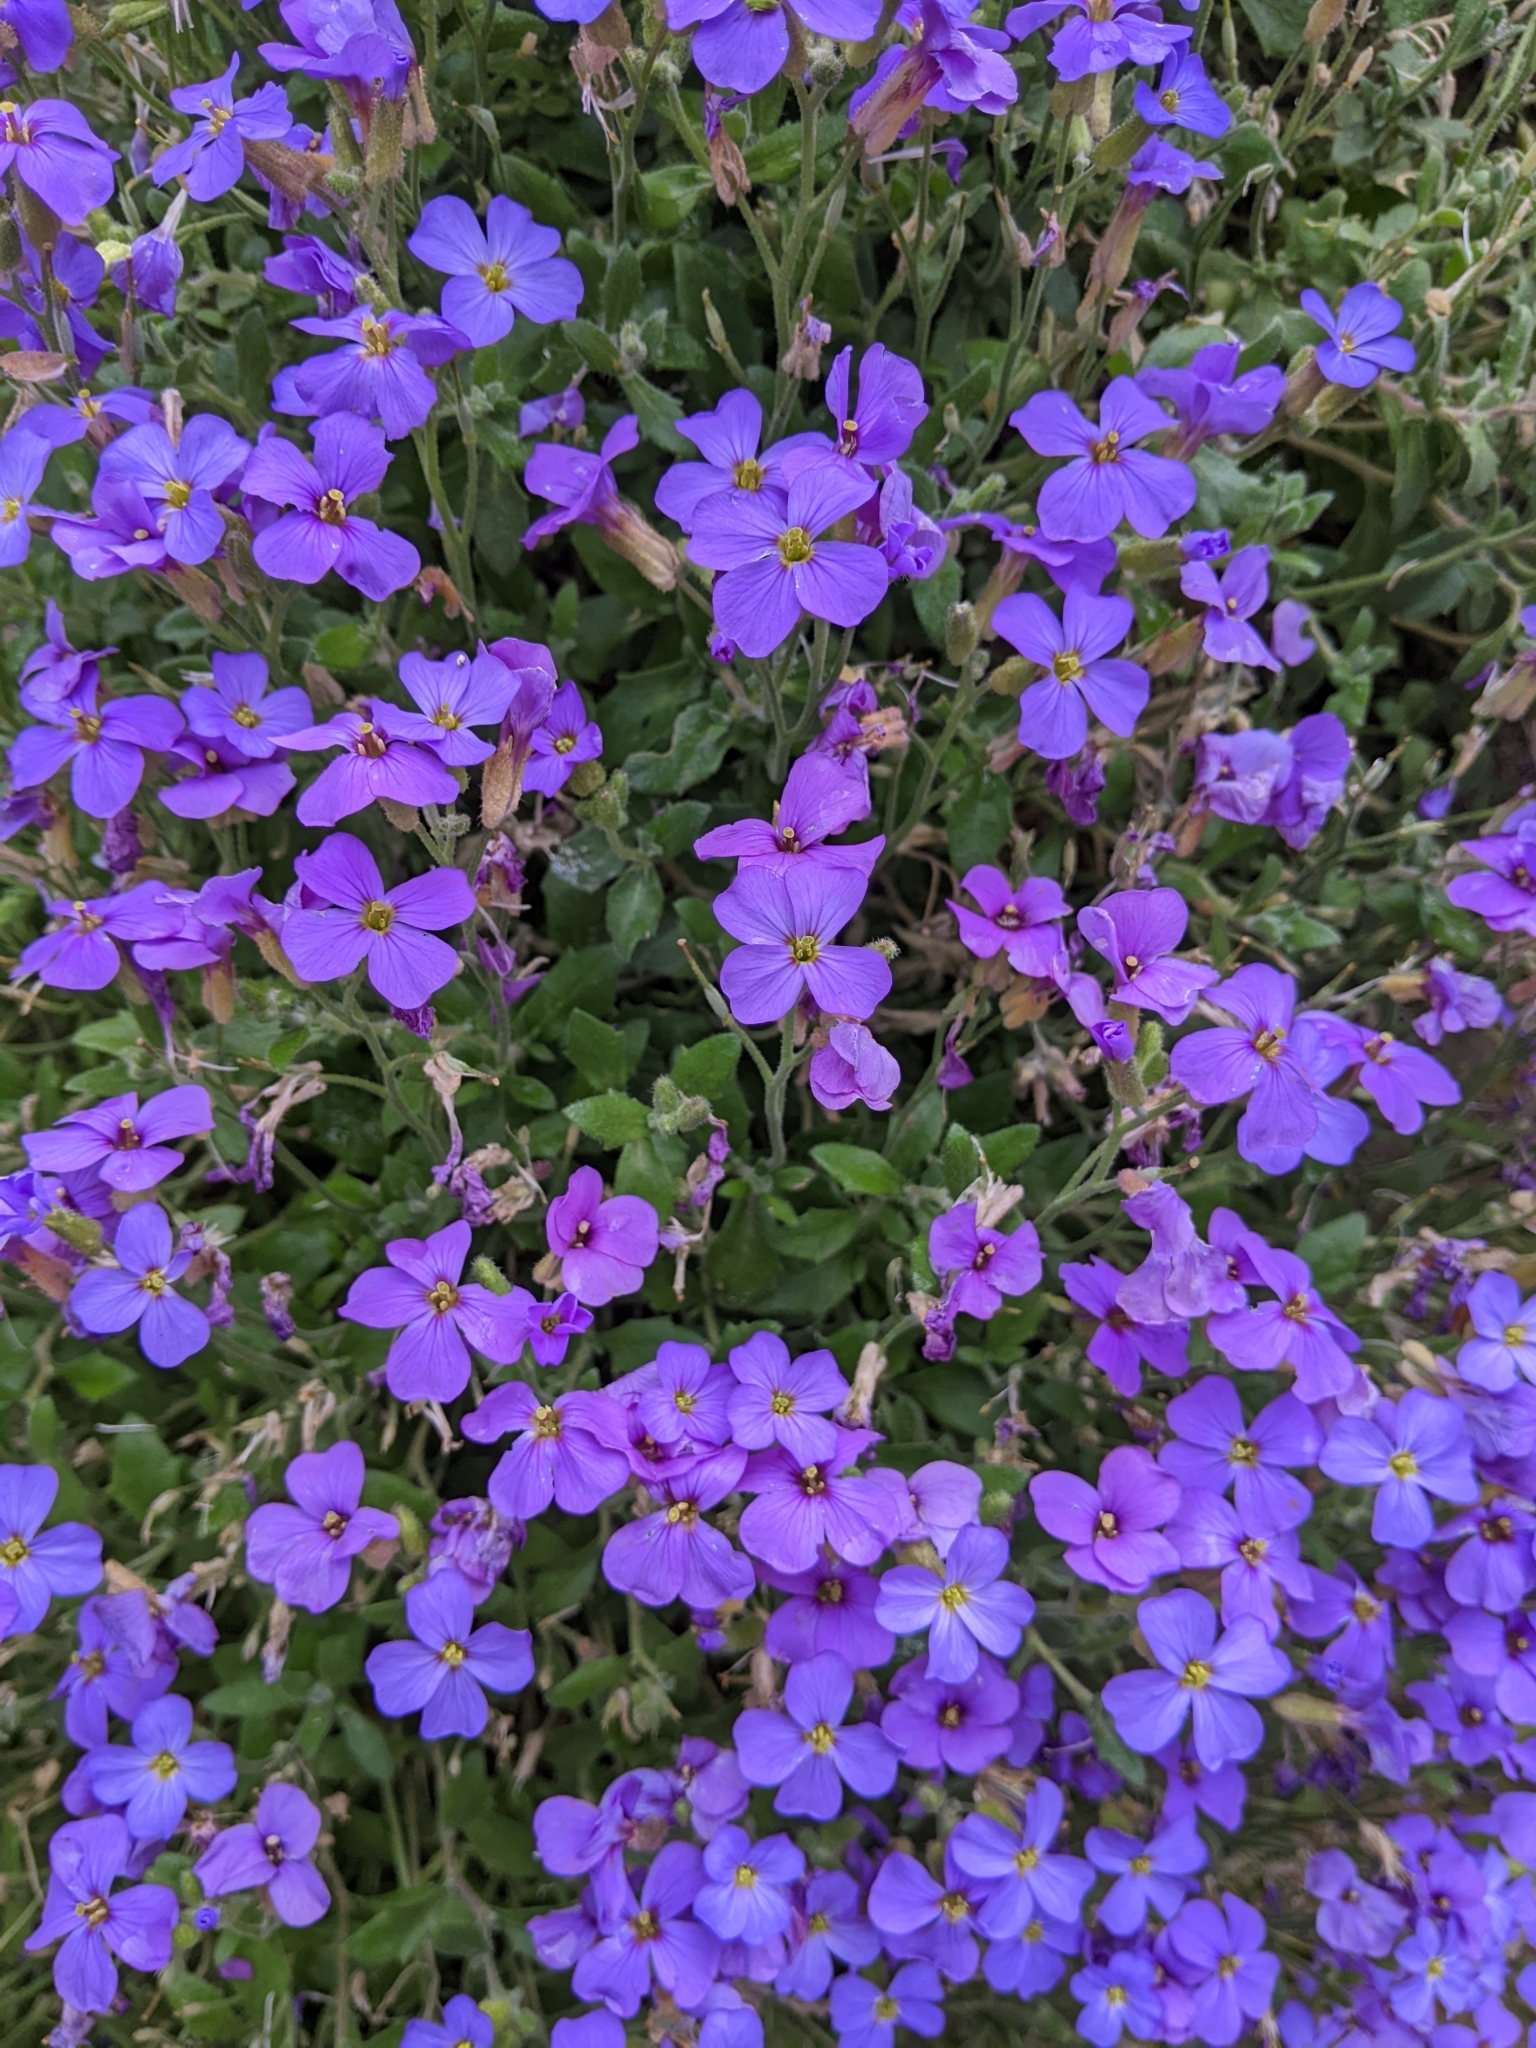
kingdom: Plantae
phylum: Tracheophyta
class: Magnoliopsida
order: Brassicales
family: Brassicaceae
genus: Aubrieta
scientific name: Aubrieta deltoidea
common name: Aubretia
